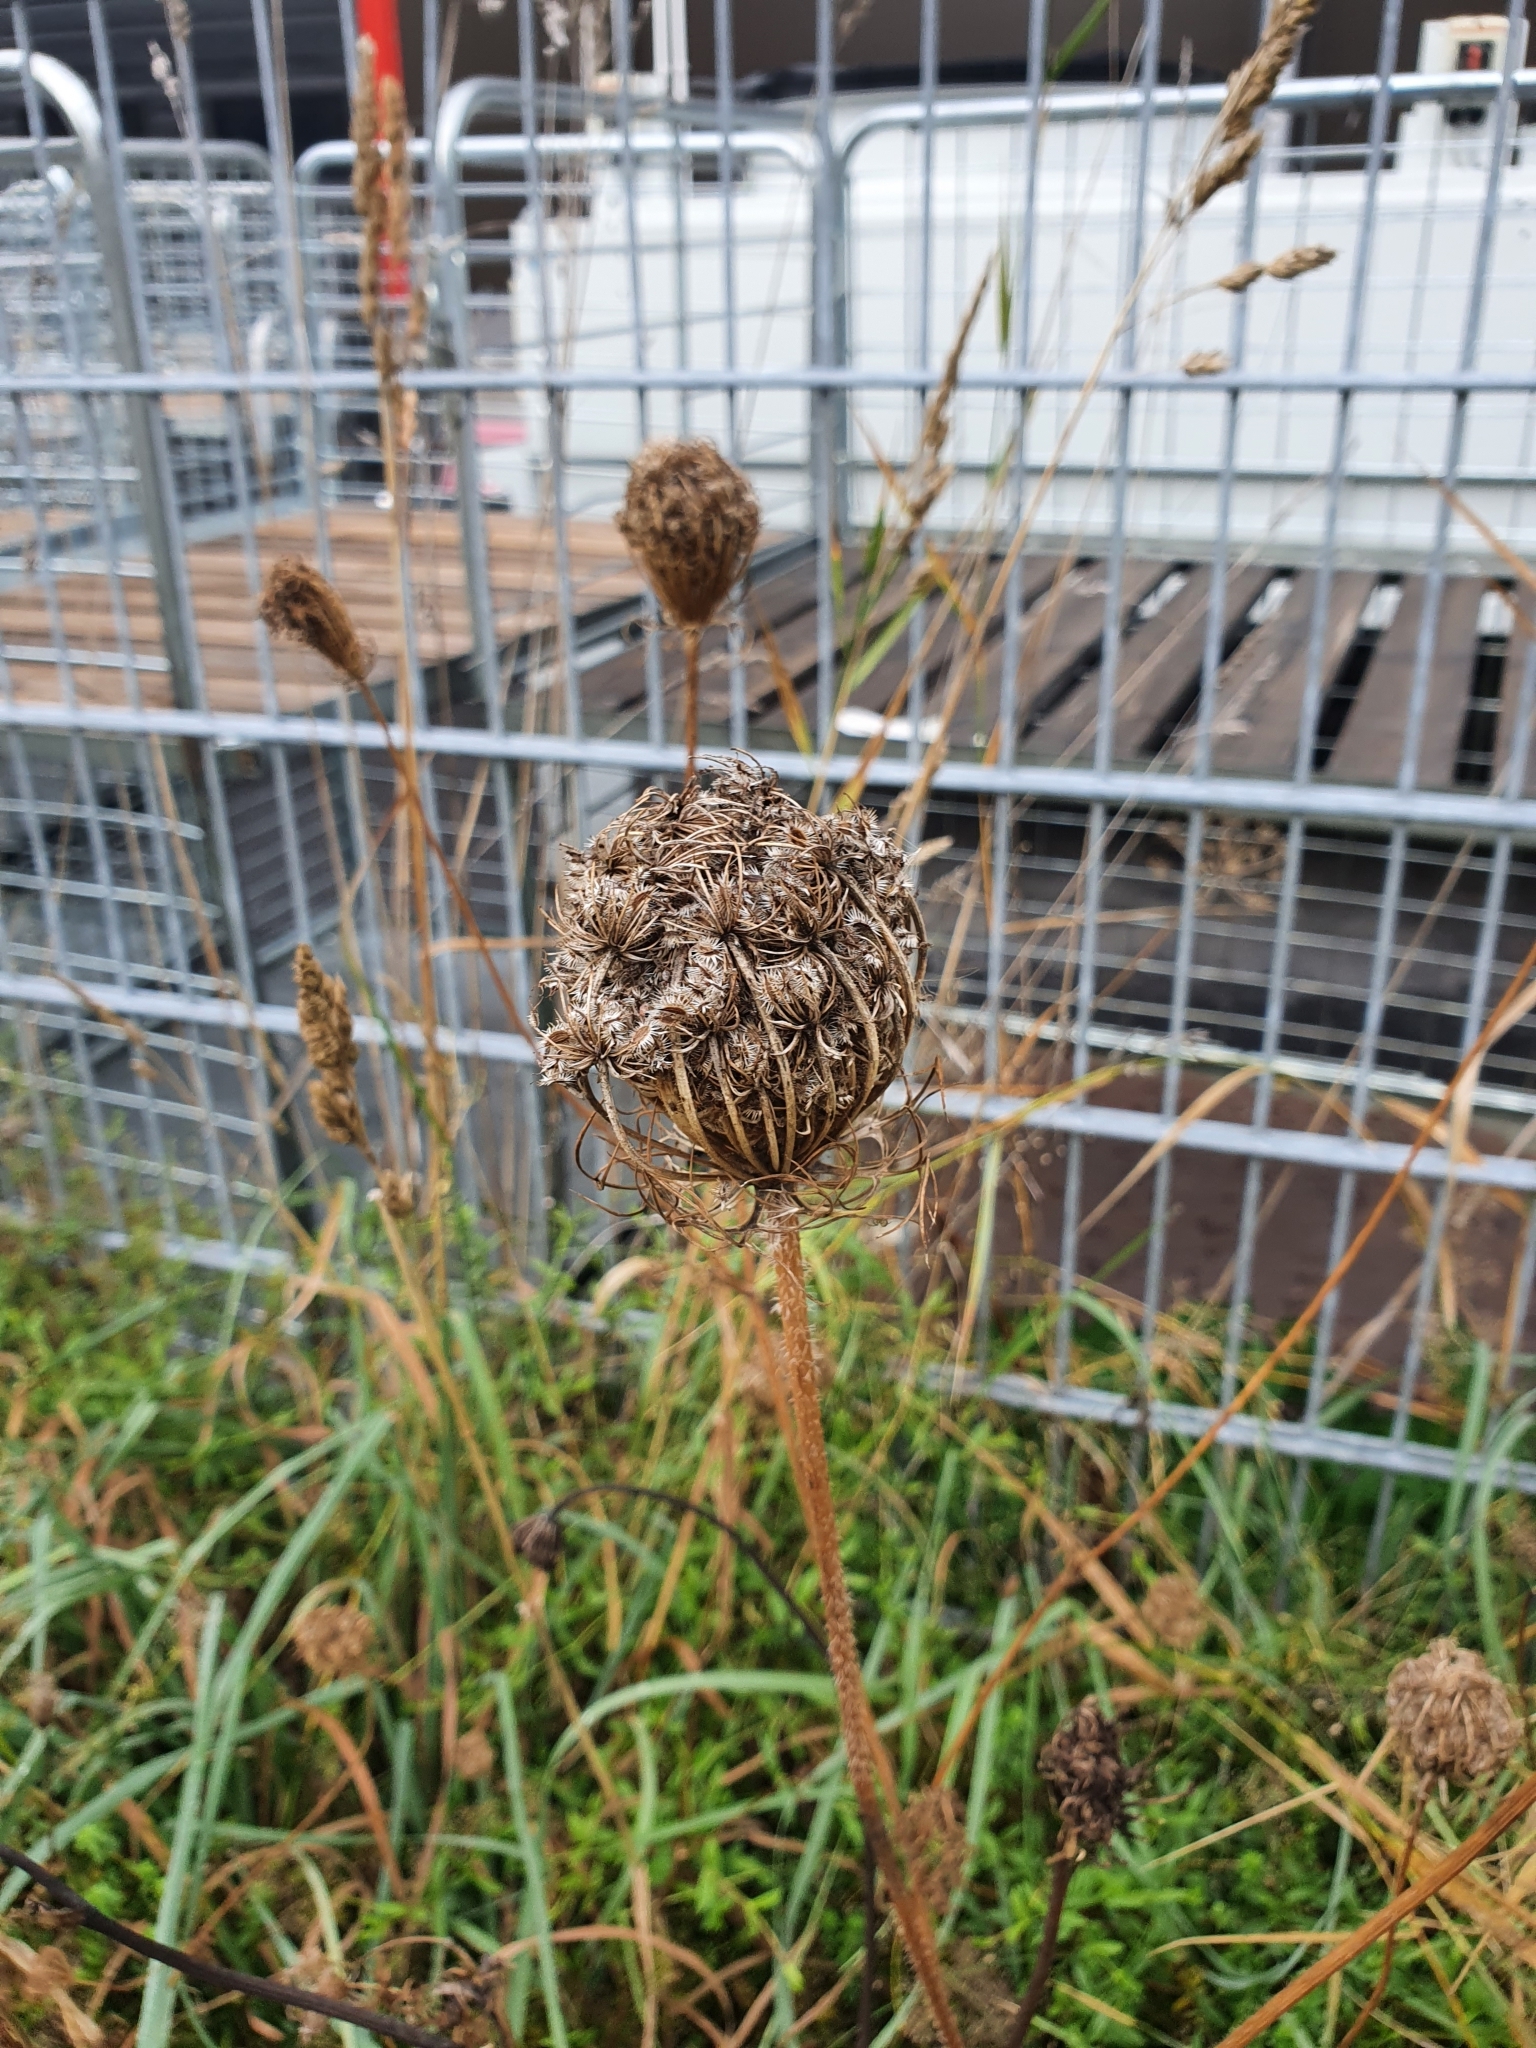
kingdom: Plantae
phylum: Tracheophyta
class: Magnoliopsida
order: Apiales
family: Apiaceae
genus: Daucus
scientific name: Daucus carota
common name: Wild carrot
